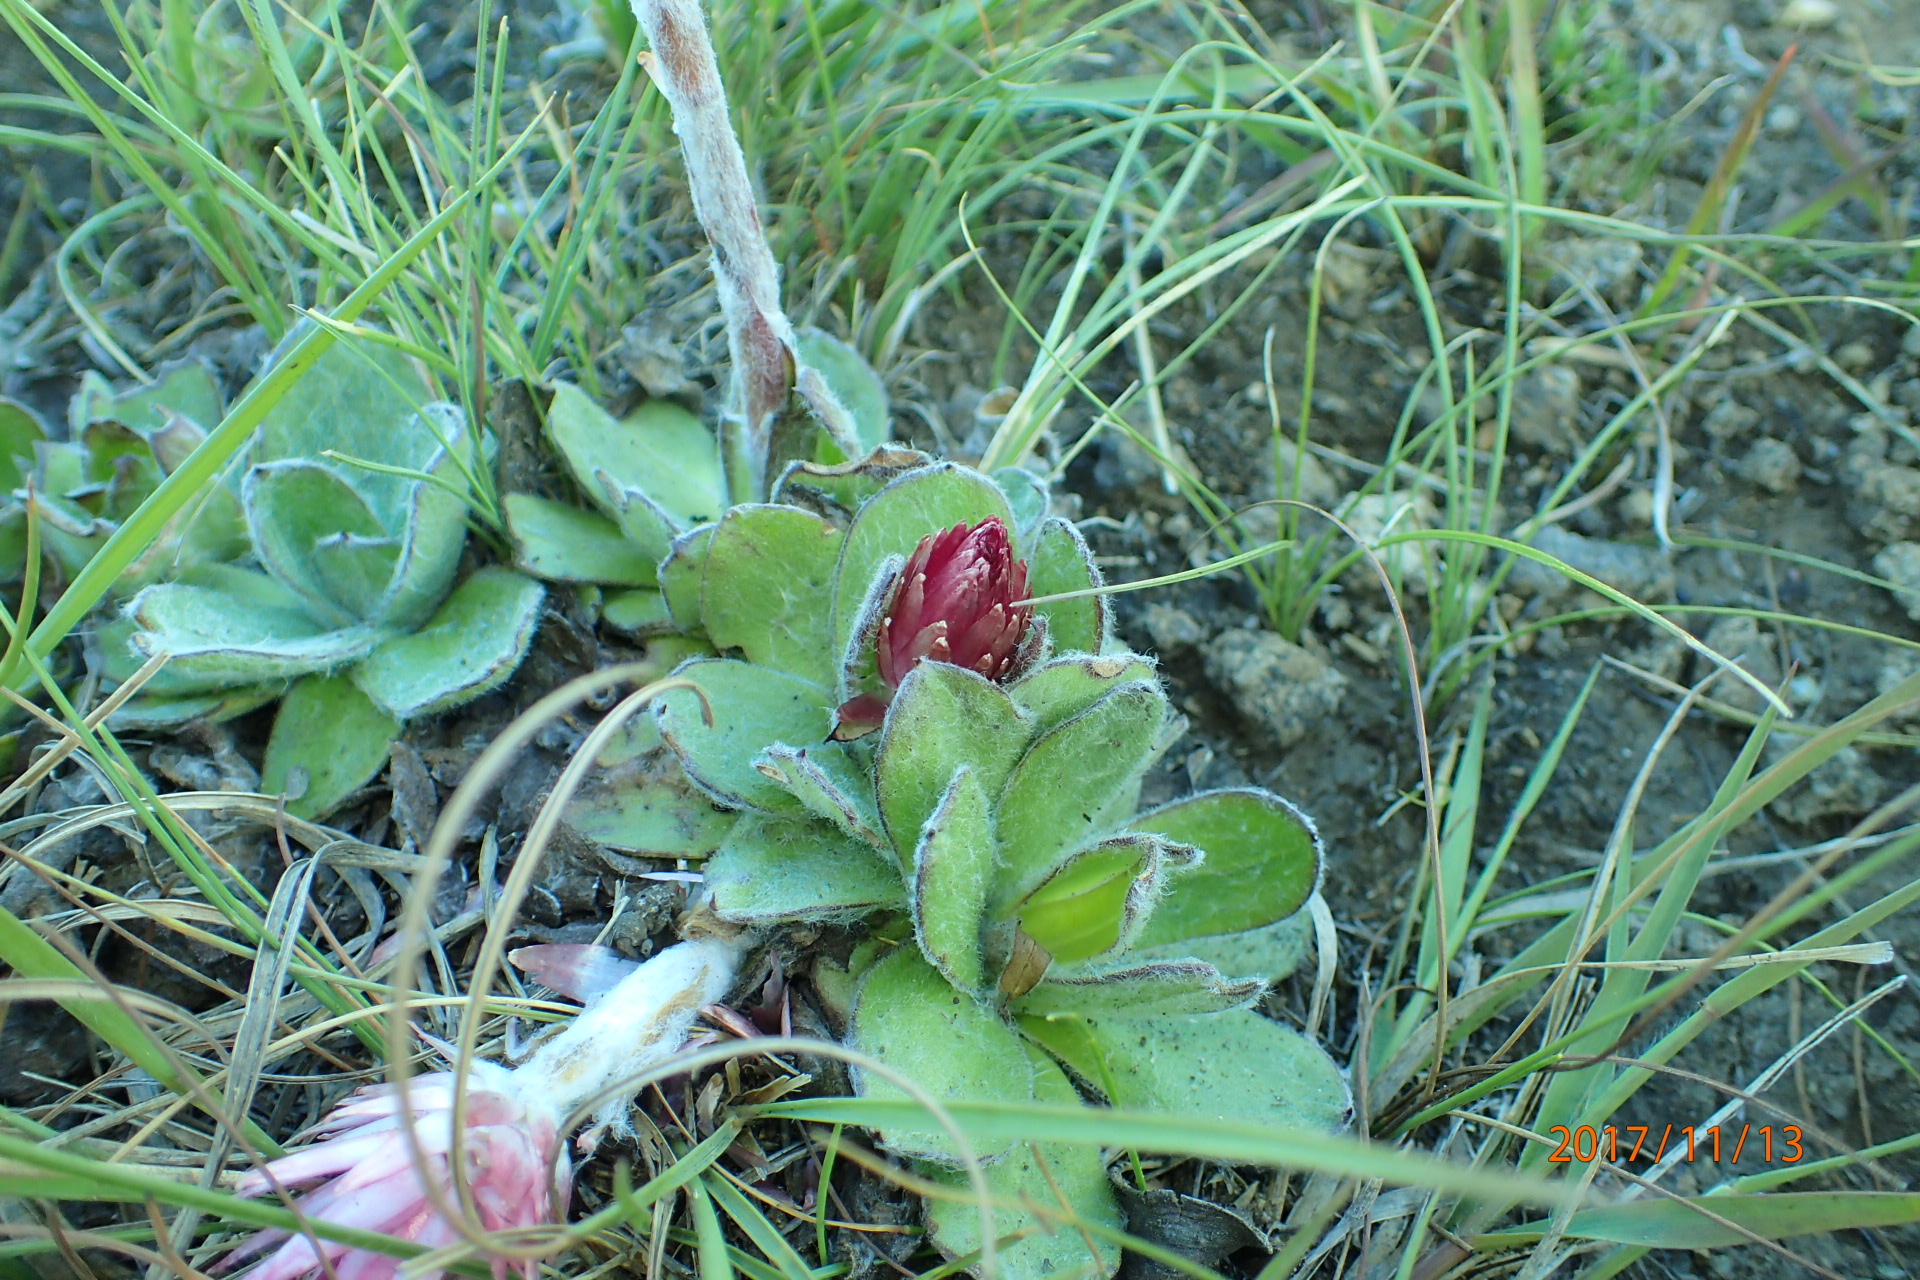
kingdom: Plantae
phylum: Tracheophyta
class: Magnoliopsida
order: Asterales
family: Asteraceae
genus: Helichrysum
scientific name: Helichrysum ecklonis
